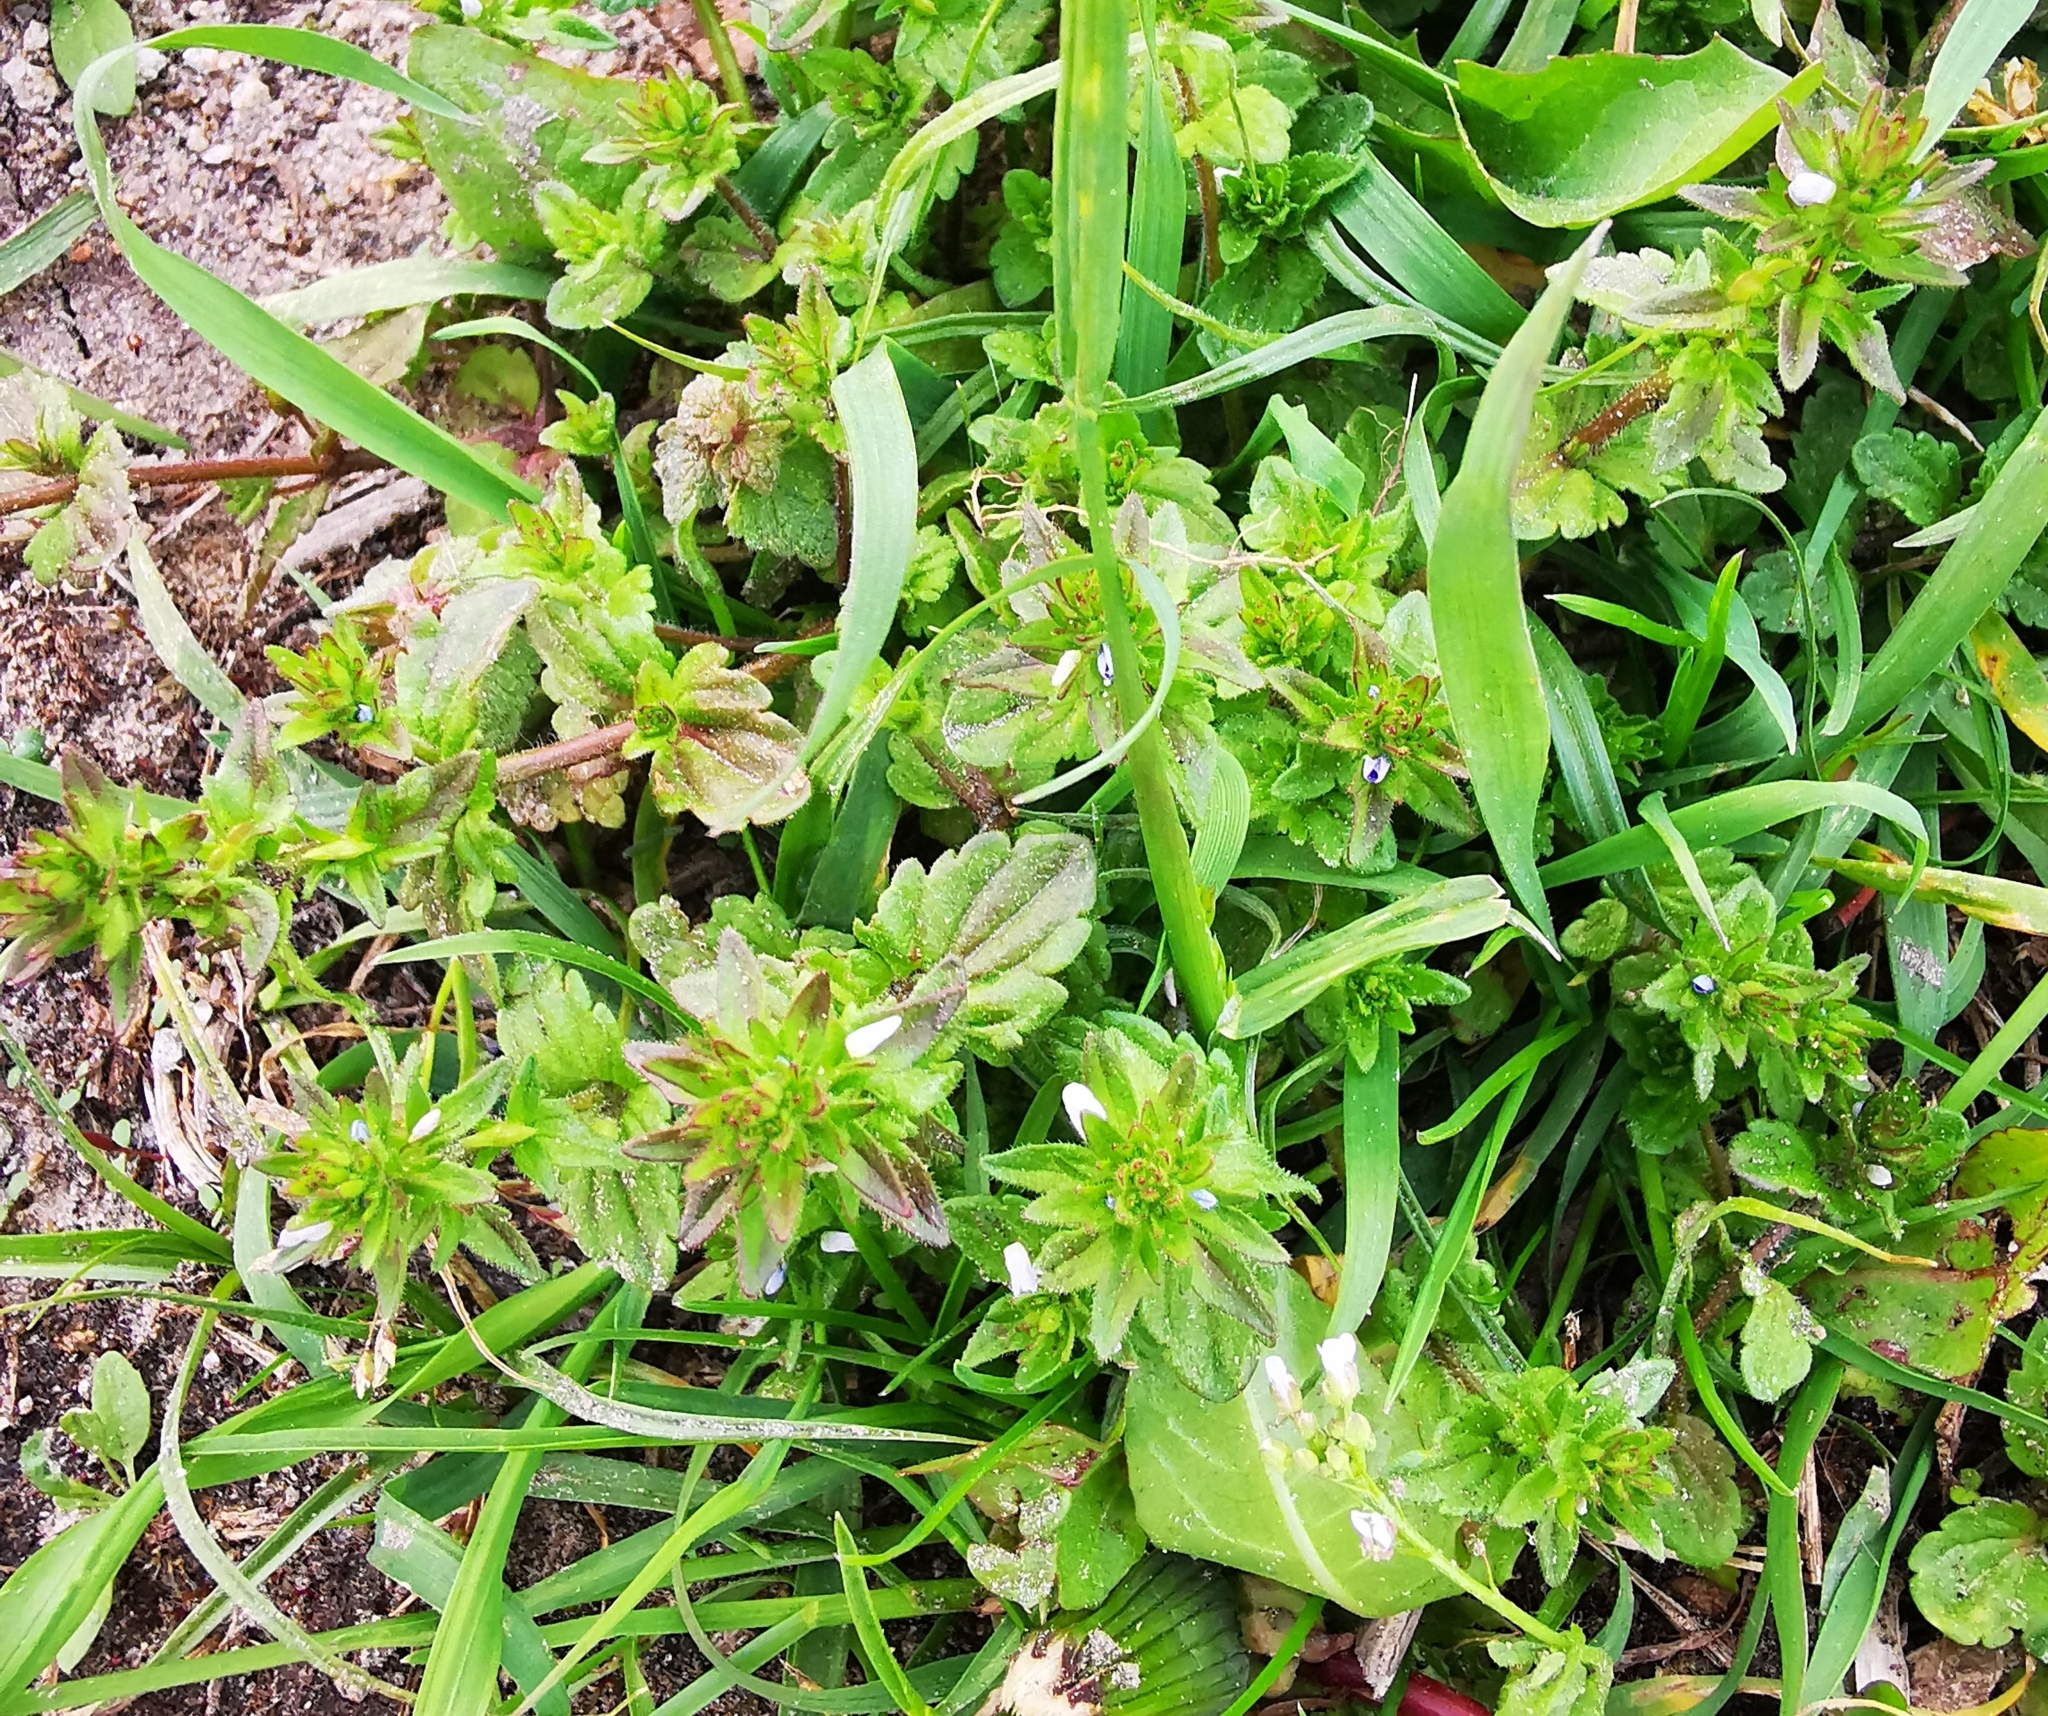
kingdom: Plantae
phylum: Tracheophyta
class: Magnoliopsida
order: Lamiales
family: Plantaginaceae
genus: Veronica
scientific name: Veronica arvensis
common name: Corn speedwell
